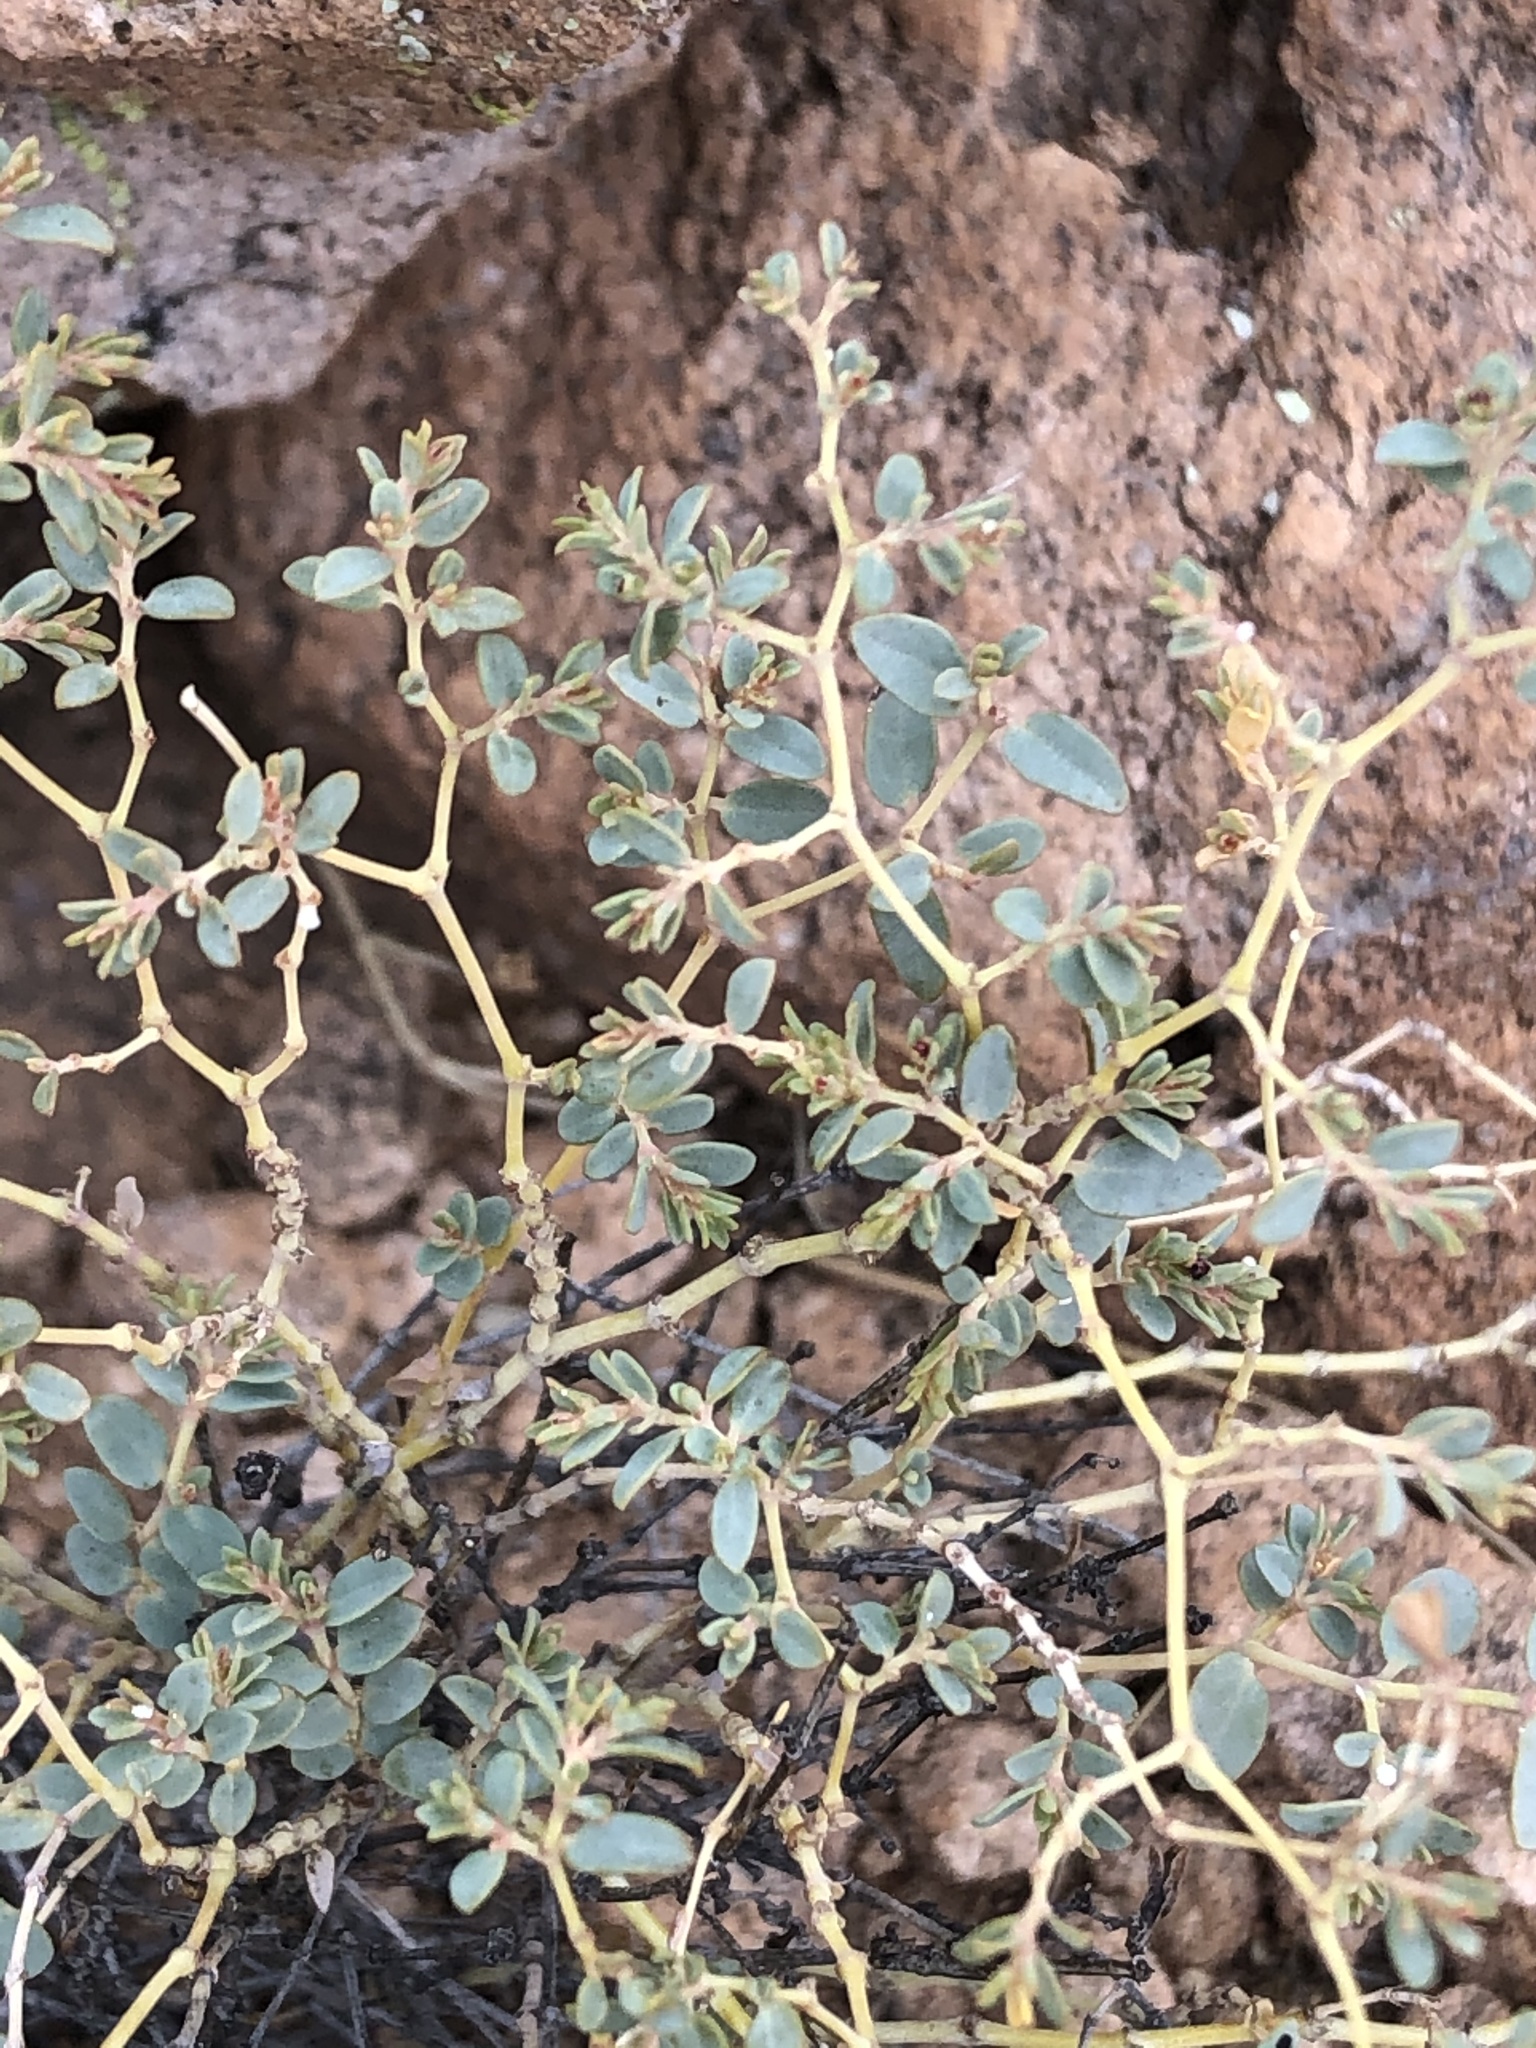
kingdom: Plantae
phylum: Tracheophyta
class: Magnoliopsida
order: Malpighiales
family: Euphorbiaceae
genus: Euphorbia
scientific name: Euphorbia polycarpa
